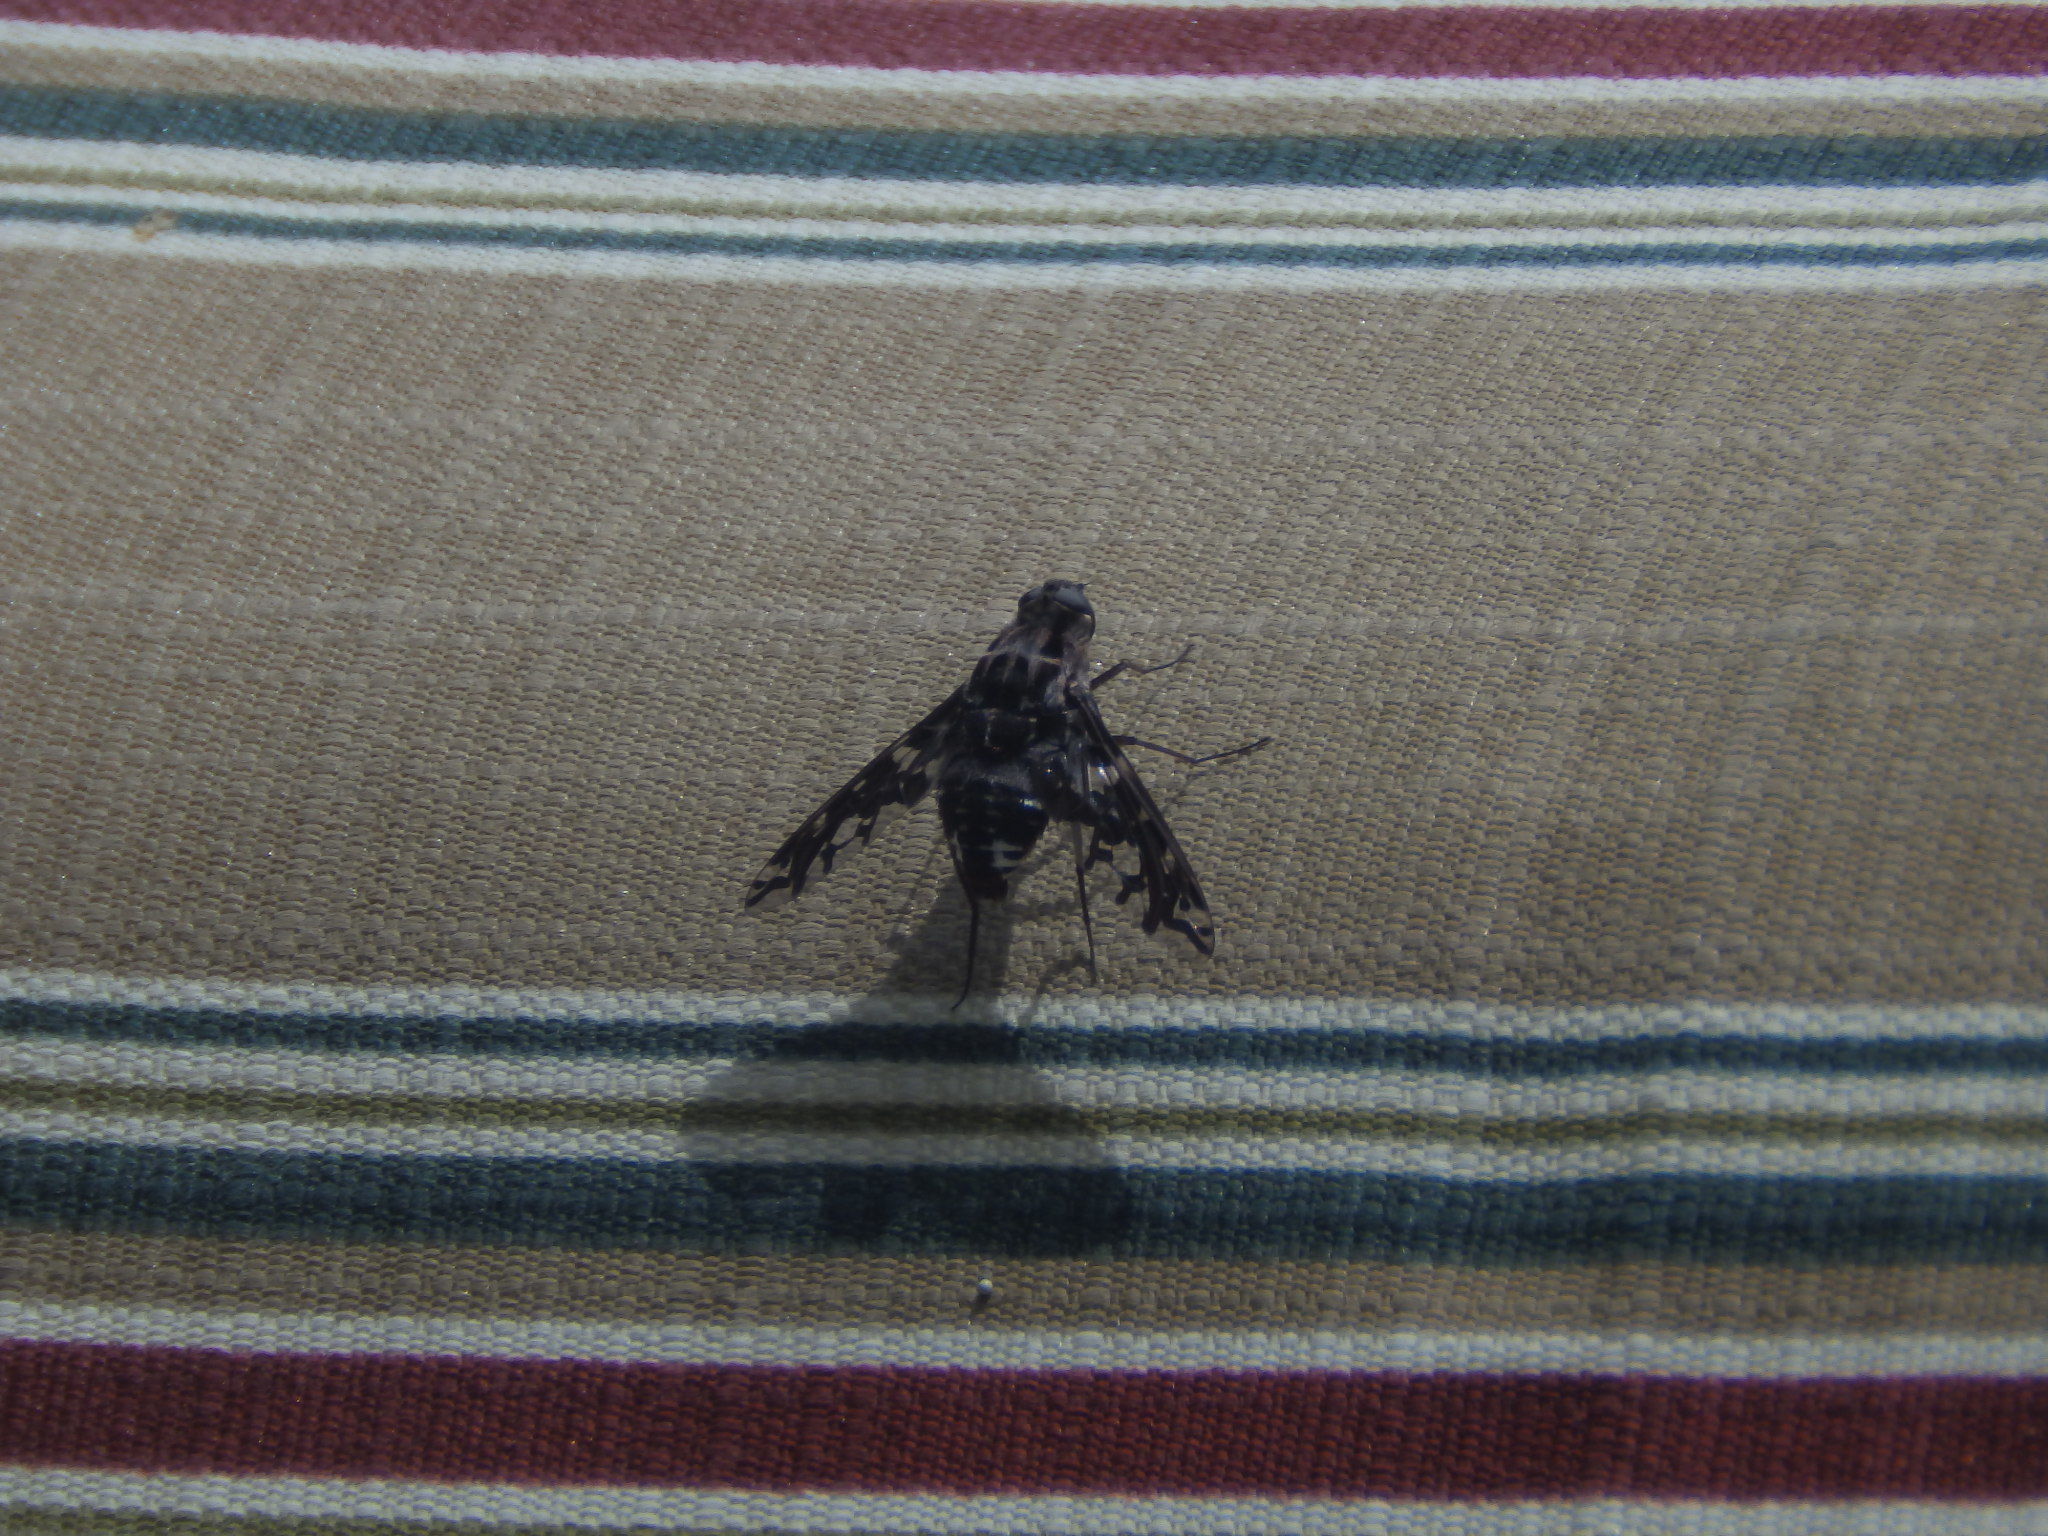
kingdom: Animalia
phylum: Arthropoda
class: Insecta
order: Diptera
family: Bombyliidae
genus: Xenox
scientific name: Xenox tigrinus
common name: Tiger bee fly
